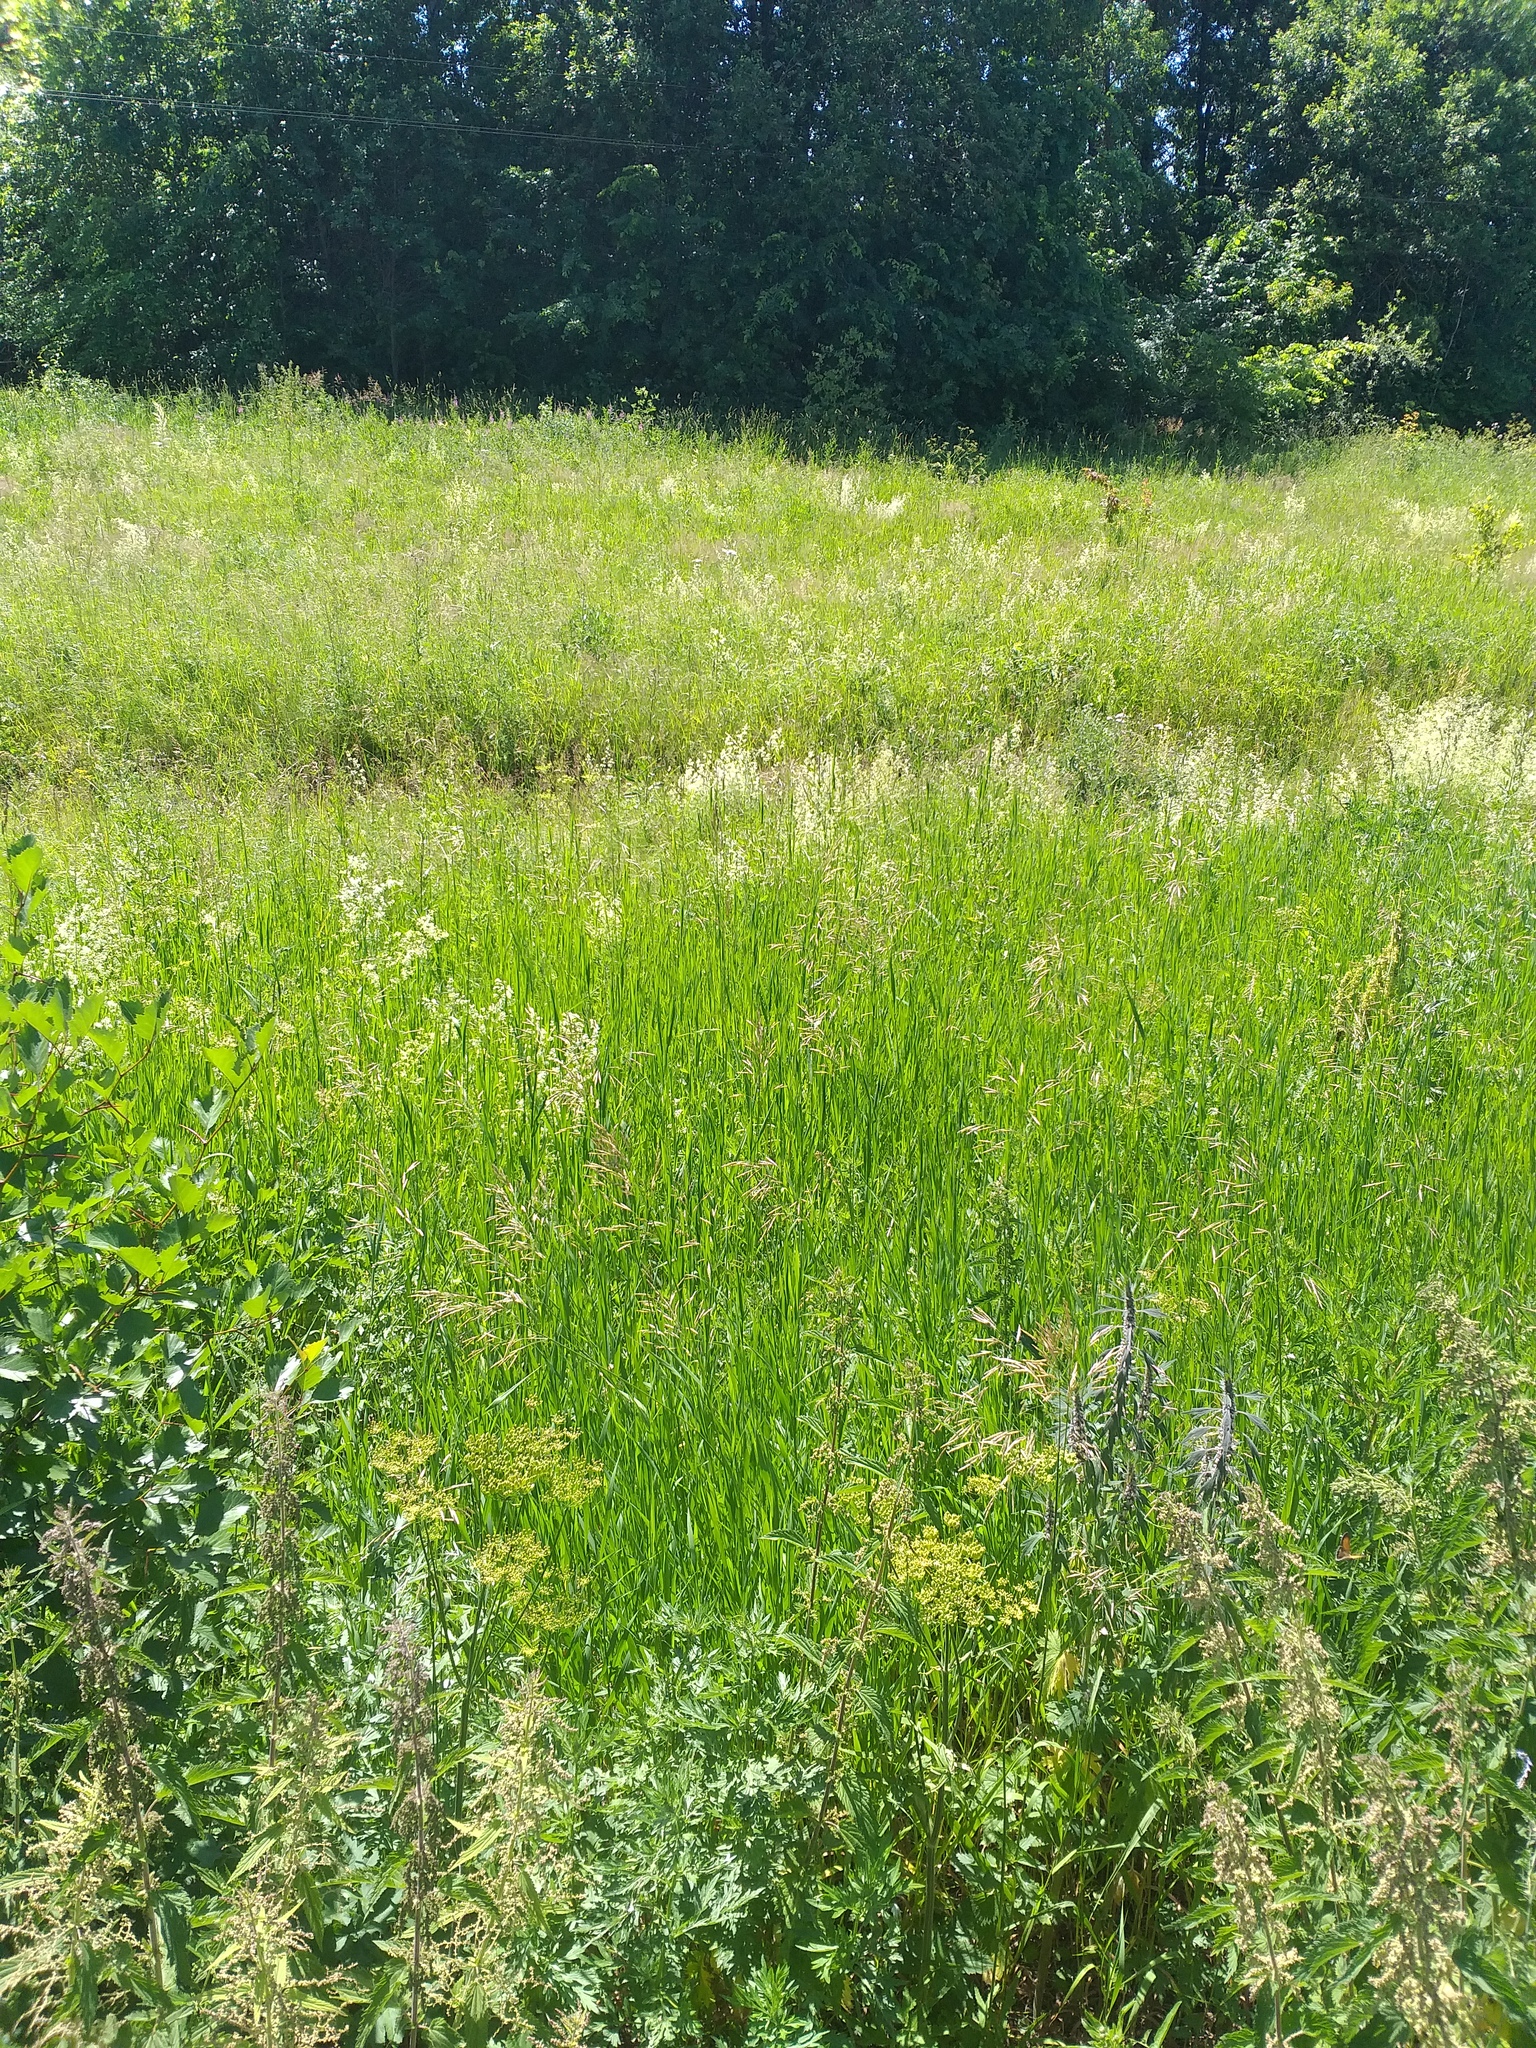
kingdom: Plantae
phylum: Tracheophyta
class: Liliopsida
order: Poales
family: Poaceae
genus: Bromus
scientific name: Bromus inermis
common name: Smooth brome
